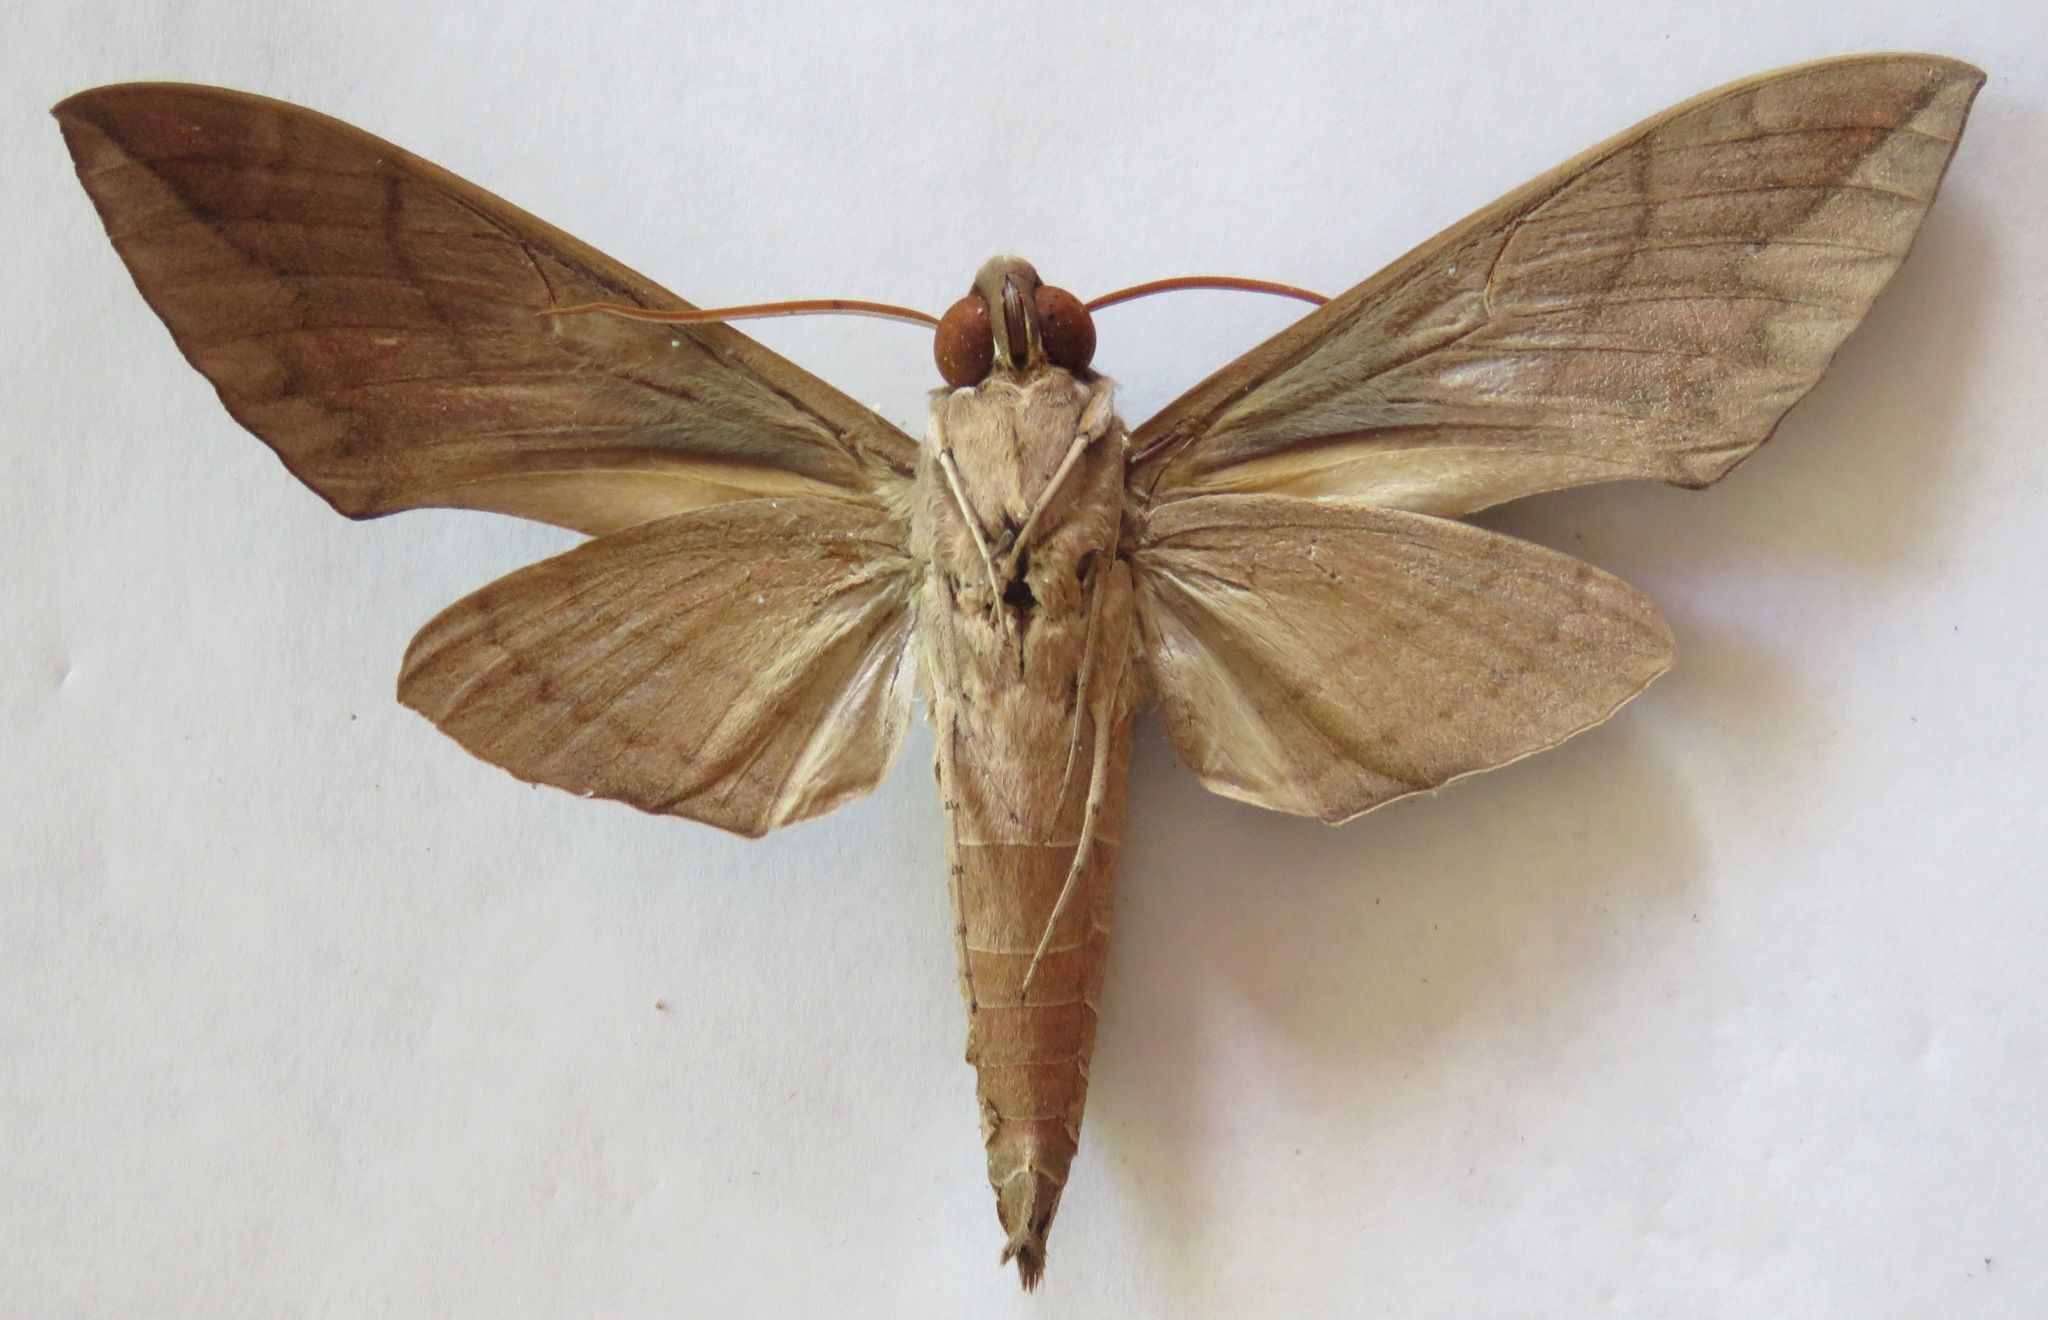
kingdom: Animalia
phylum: Arthropoda
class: Insecta
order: Lepidoptera
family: Sphingidae
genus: Eumorpha
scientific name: Eumorpha satellitia
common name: Satellite sphinx
